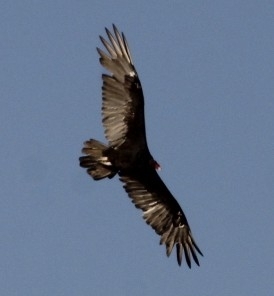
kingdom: Animalia
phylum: Chordata
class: Aves
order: Accipitriformes
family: Cathartidae
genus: Cathartes
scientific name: Cathartes aura
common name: Turkey vulture
